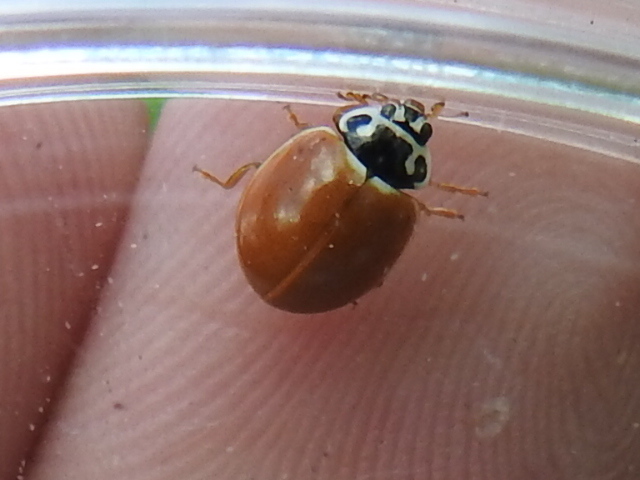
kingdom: Animalia
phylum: Arthropoda
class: Insecta
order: Coleoptera
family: Coccinellidae
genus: Cycloneda
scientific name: Cycloneda munda
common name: Polished lady beetle
